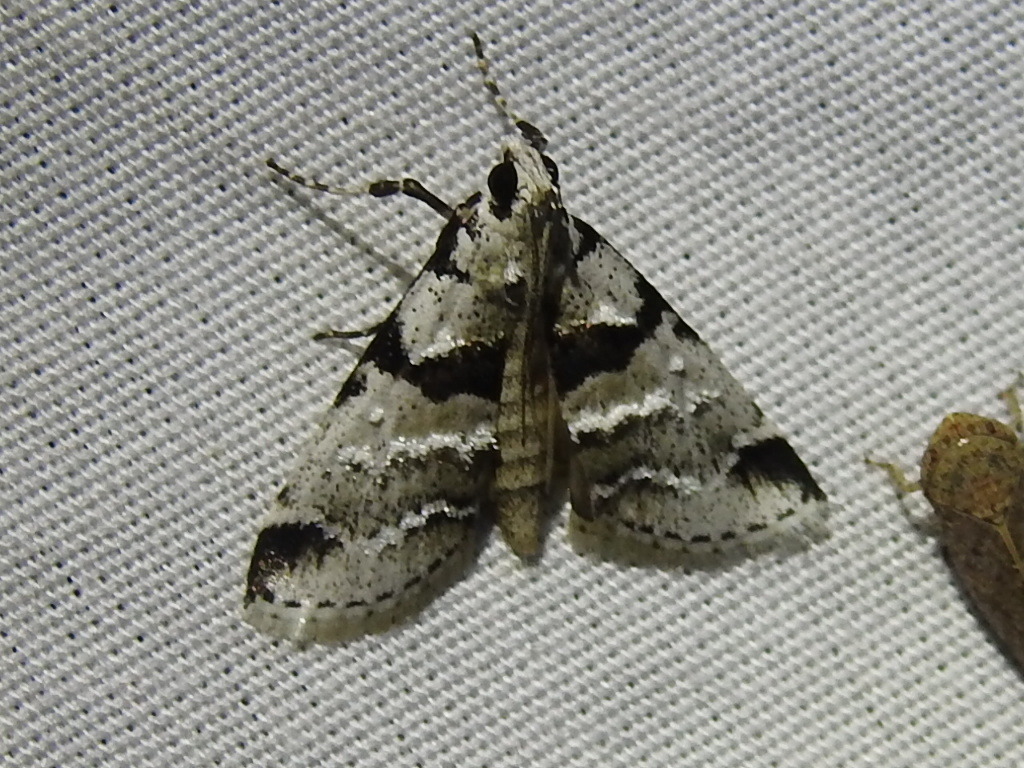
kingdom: Animalia
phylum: Arthropoda
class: Insecta
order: Lepidoptera
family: Pyralidae
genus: Tallula
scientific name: Tallula atrifascialis
